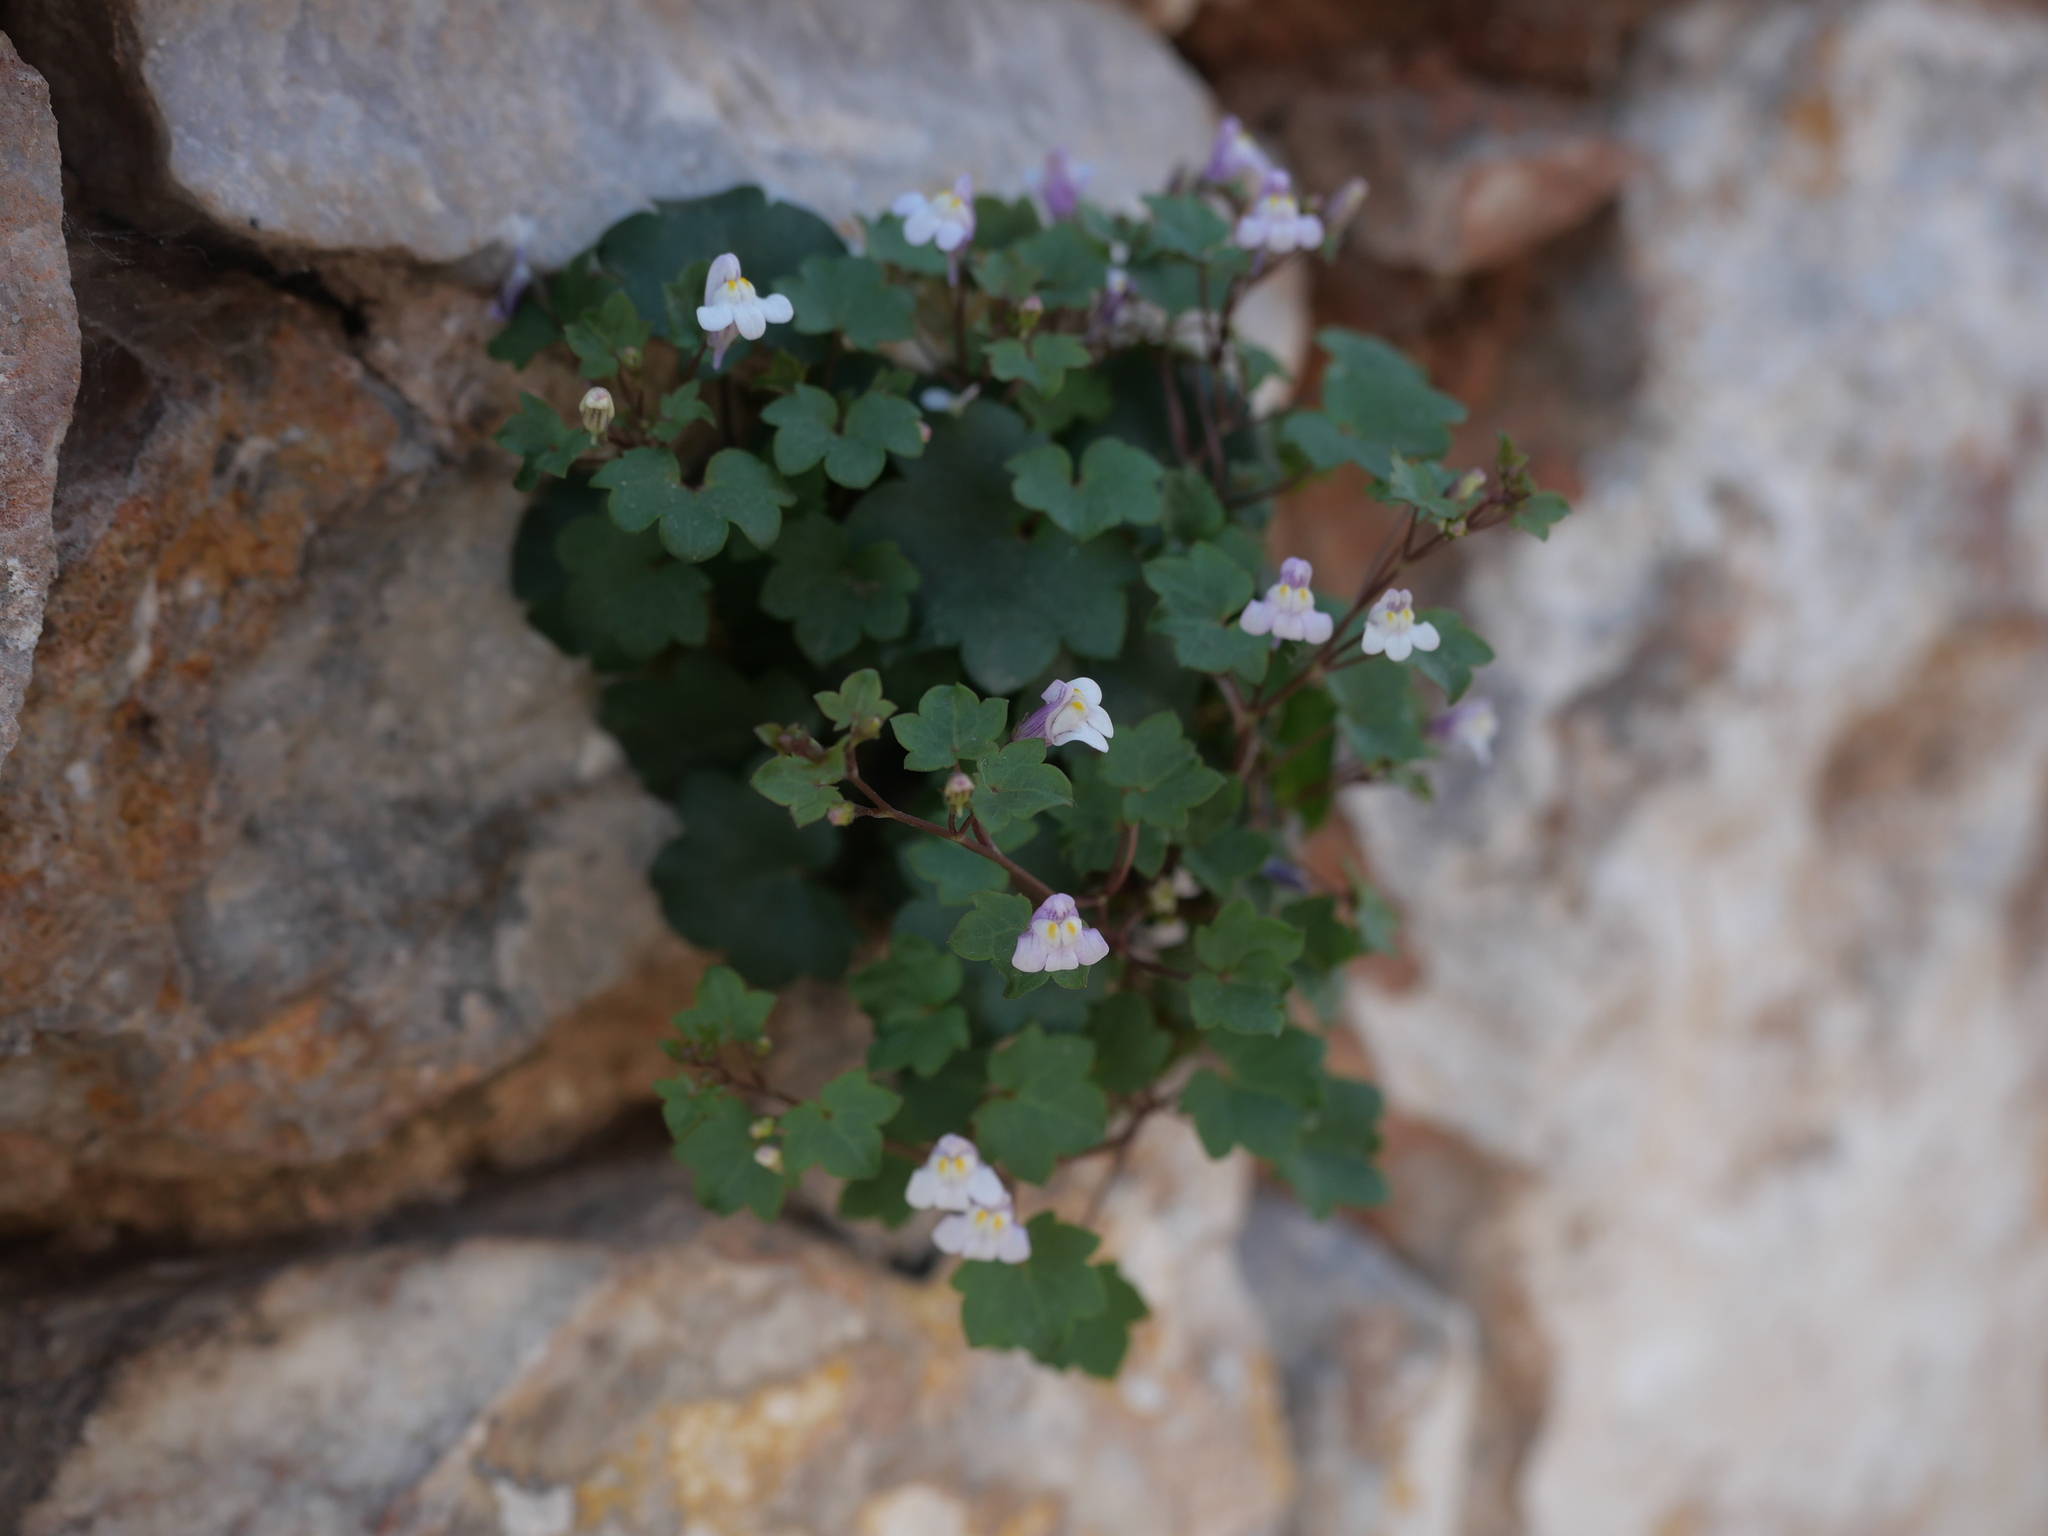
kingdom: Plantae
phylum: Tracheophyta
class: Magnoliopsida
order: Lamiales
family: Plantaginaceae
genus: Cymbalaria
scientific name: Cymbalaria muralis
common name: Ivy-leaved toadflax
